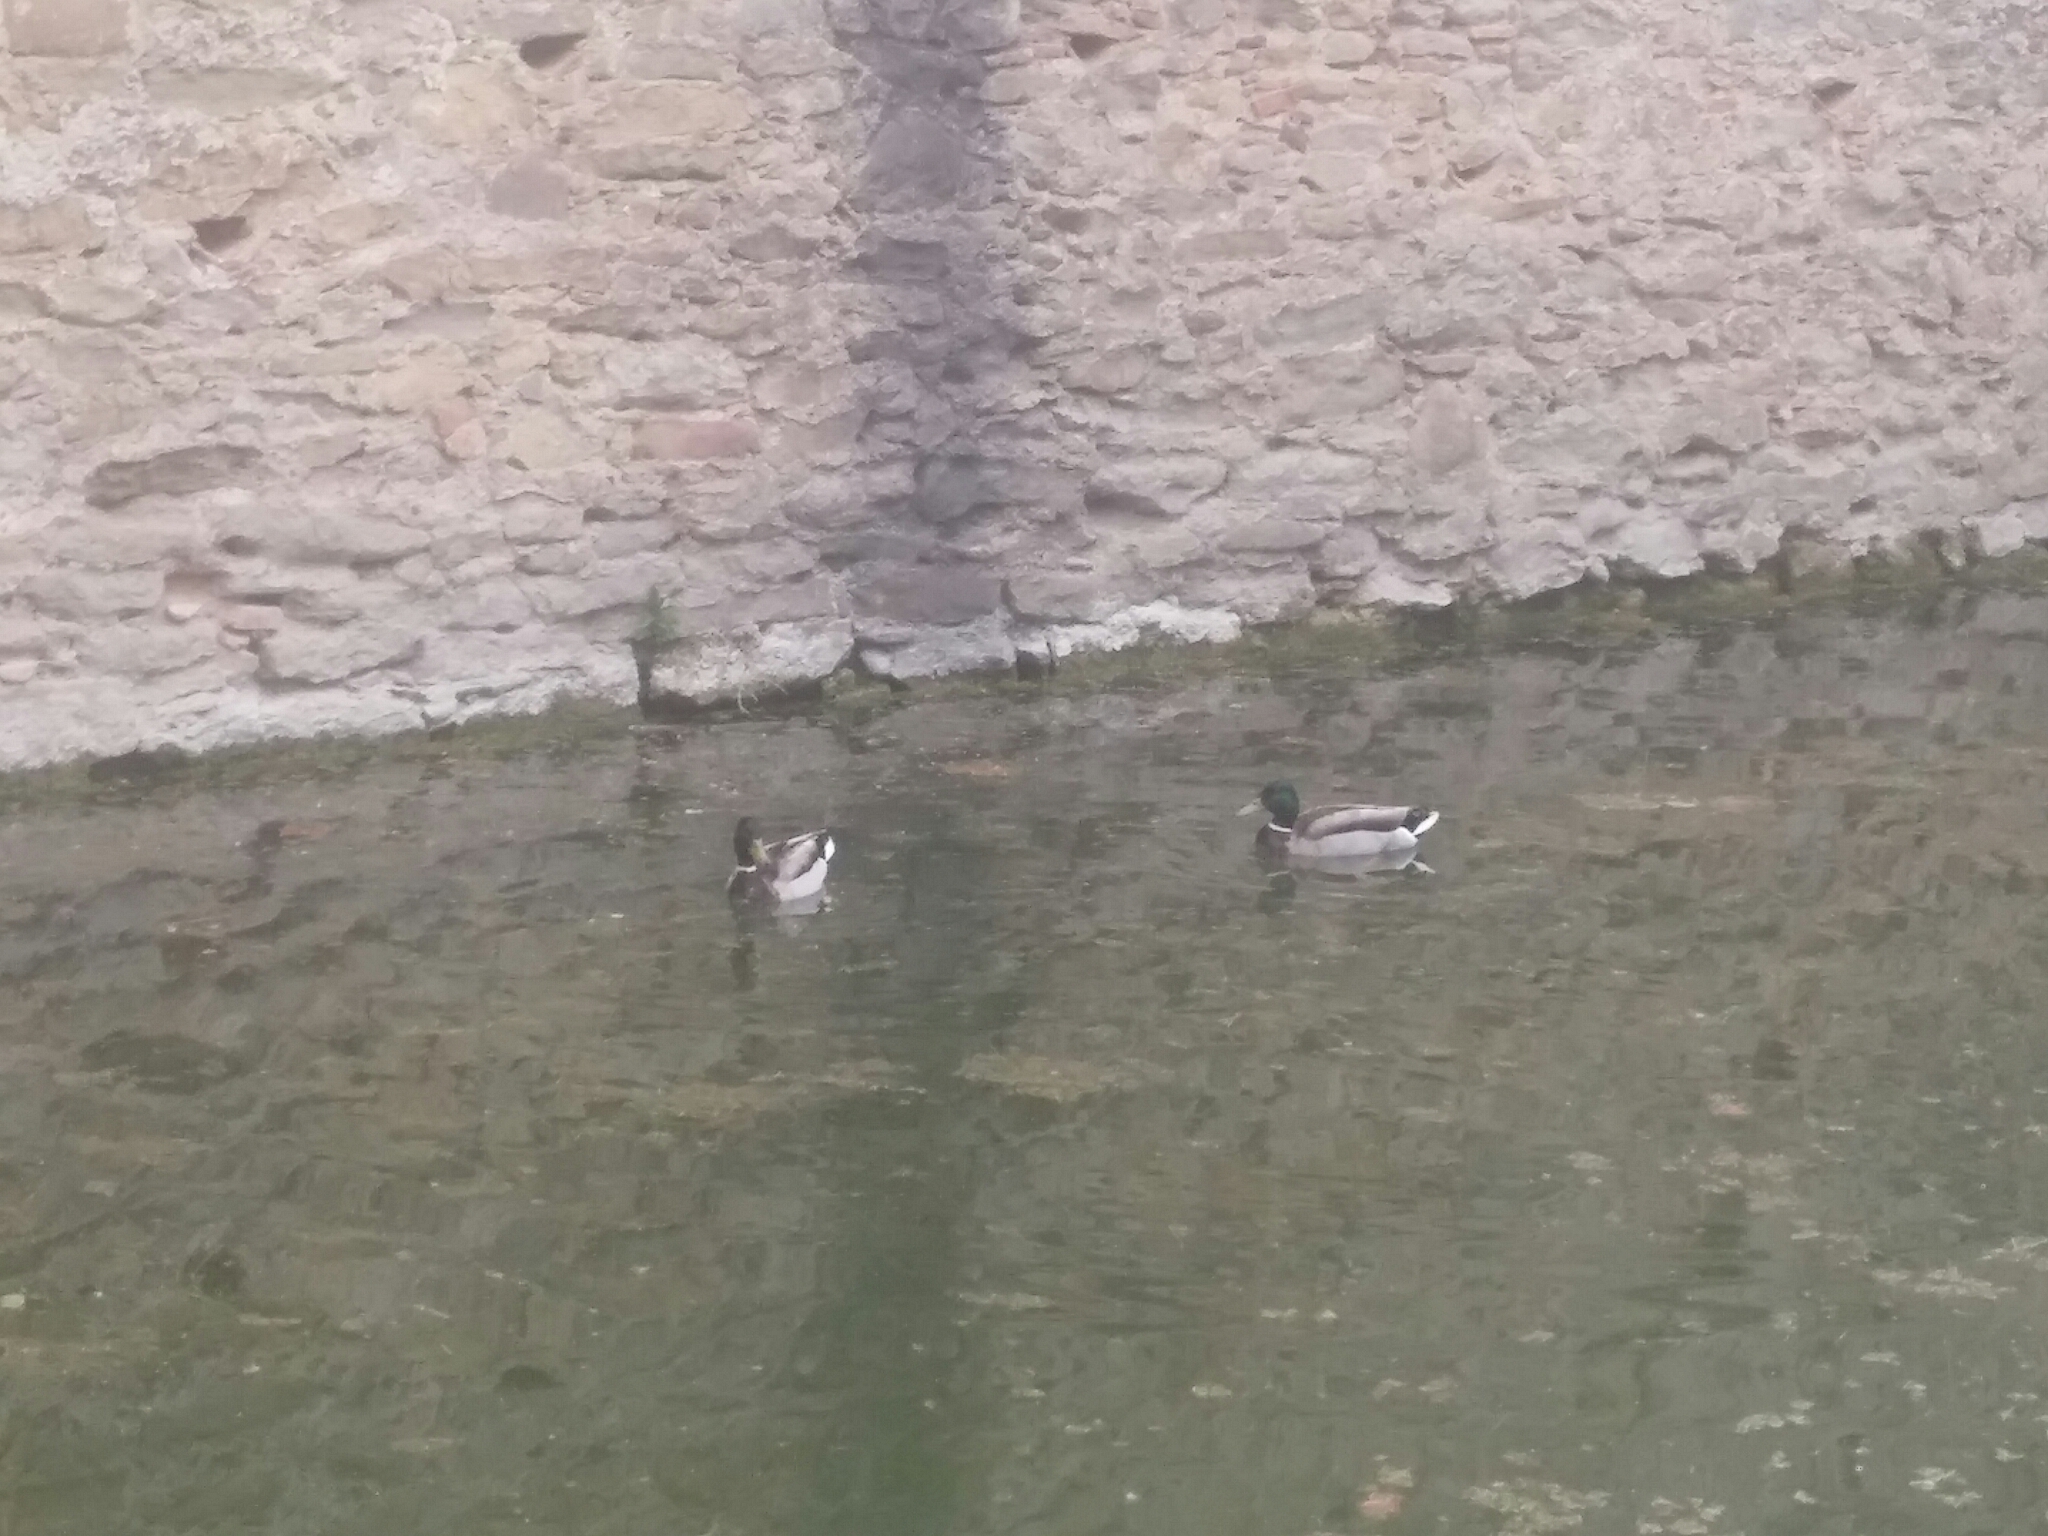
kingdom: Animalia
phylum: Chordata
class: Aves
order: Anseriformes
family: Anatidae
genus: Anas
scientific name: Anas platyrhynchos
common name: Mallard
